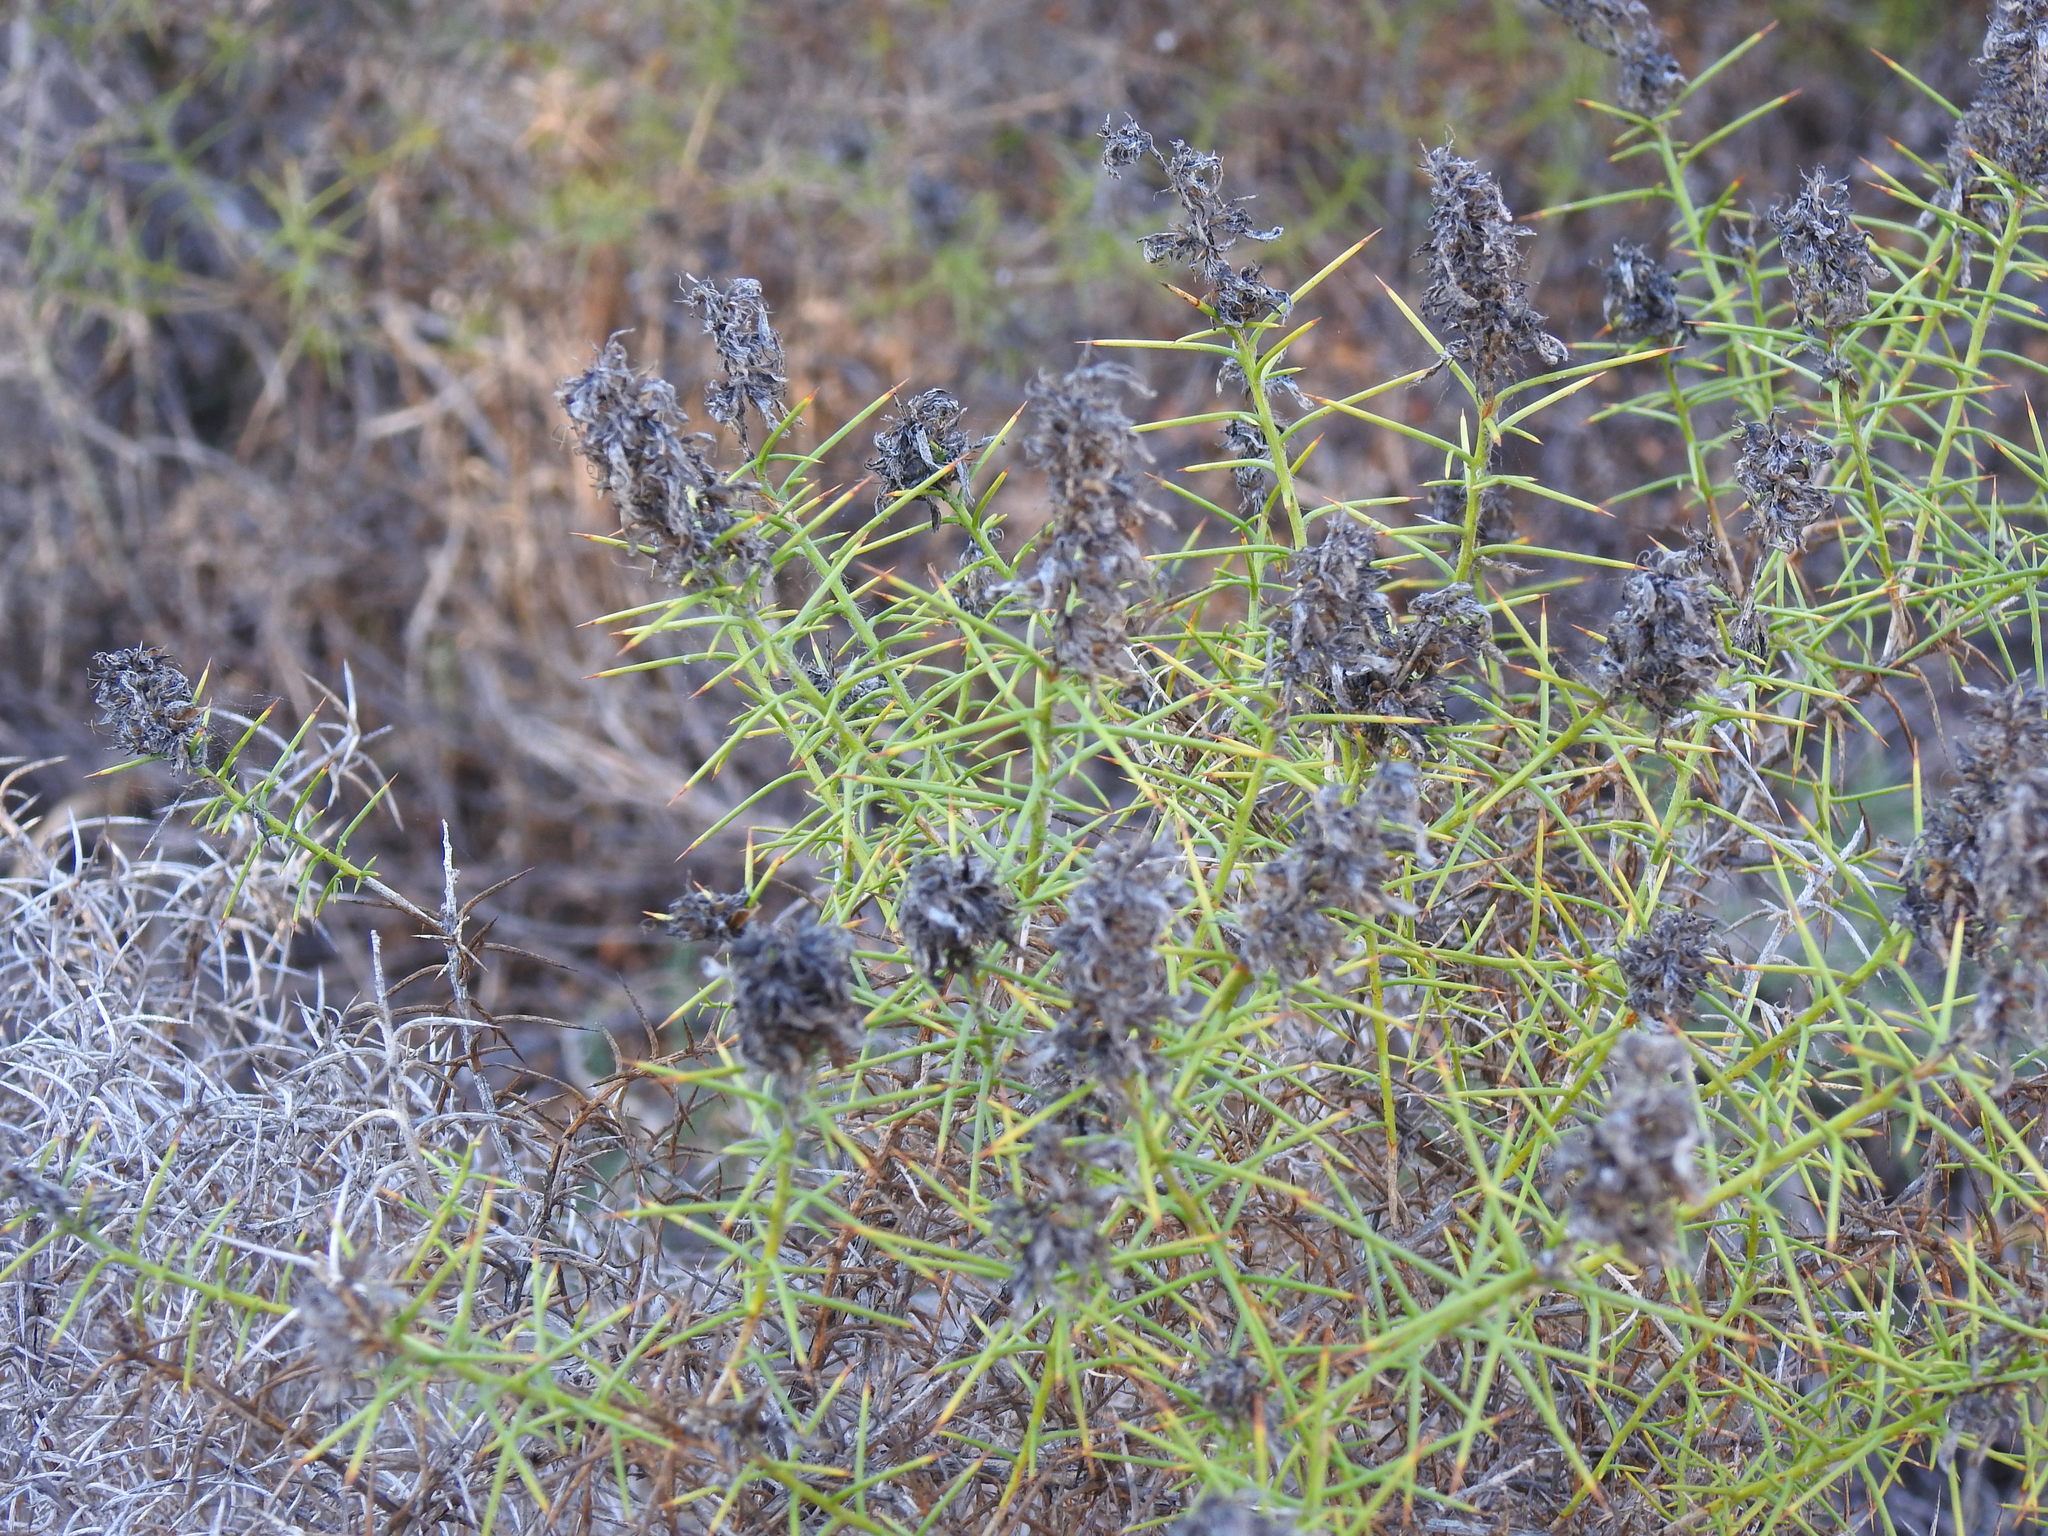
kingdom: Plantae
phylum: Tracheophyta
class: Magnoliopsida
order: Fabales
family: Fabaceae
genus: Genista
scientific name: Genista hirsuta
